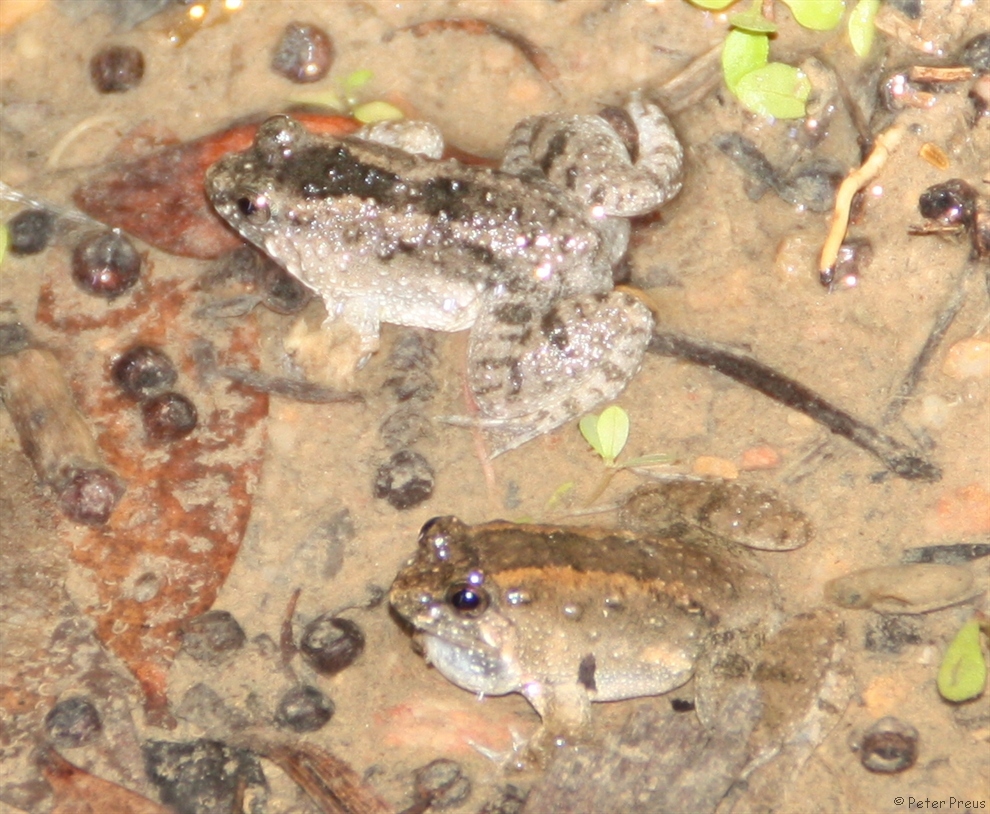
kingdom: Animalia
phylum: Chordata
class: Amphibia
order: Anura
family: Dicroglossidae
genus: Occidozyga
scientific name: Occidozyga martensii
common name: Marten’s oriental frog/round-tongued floating frog
